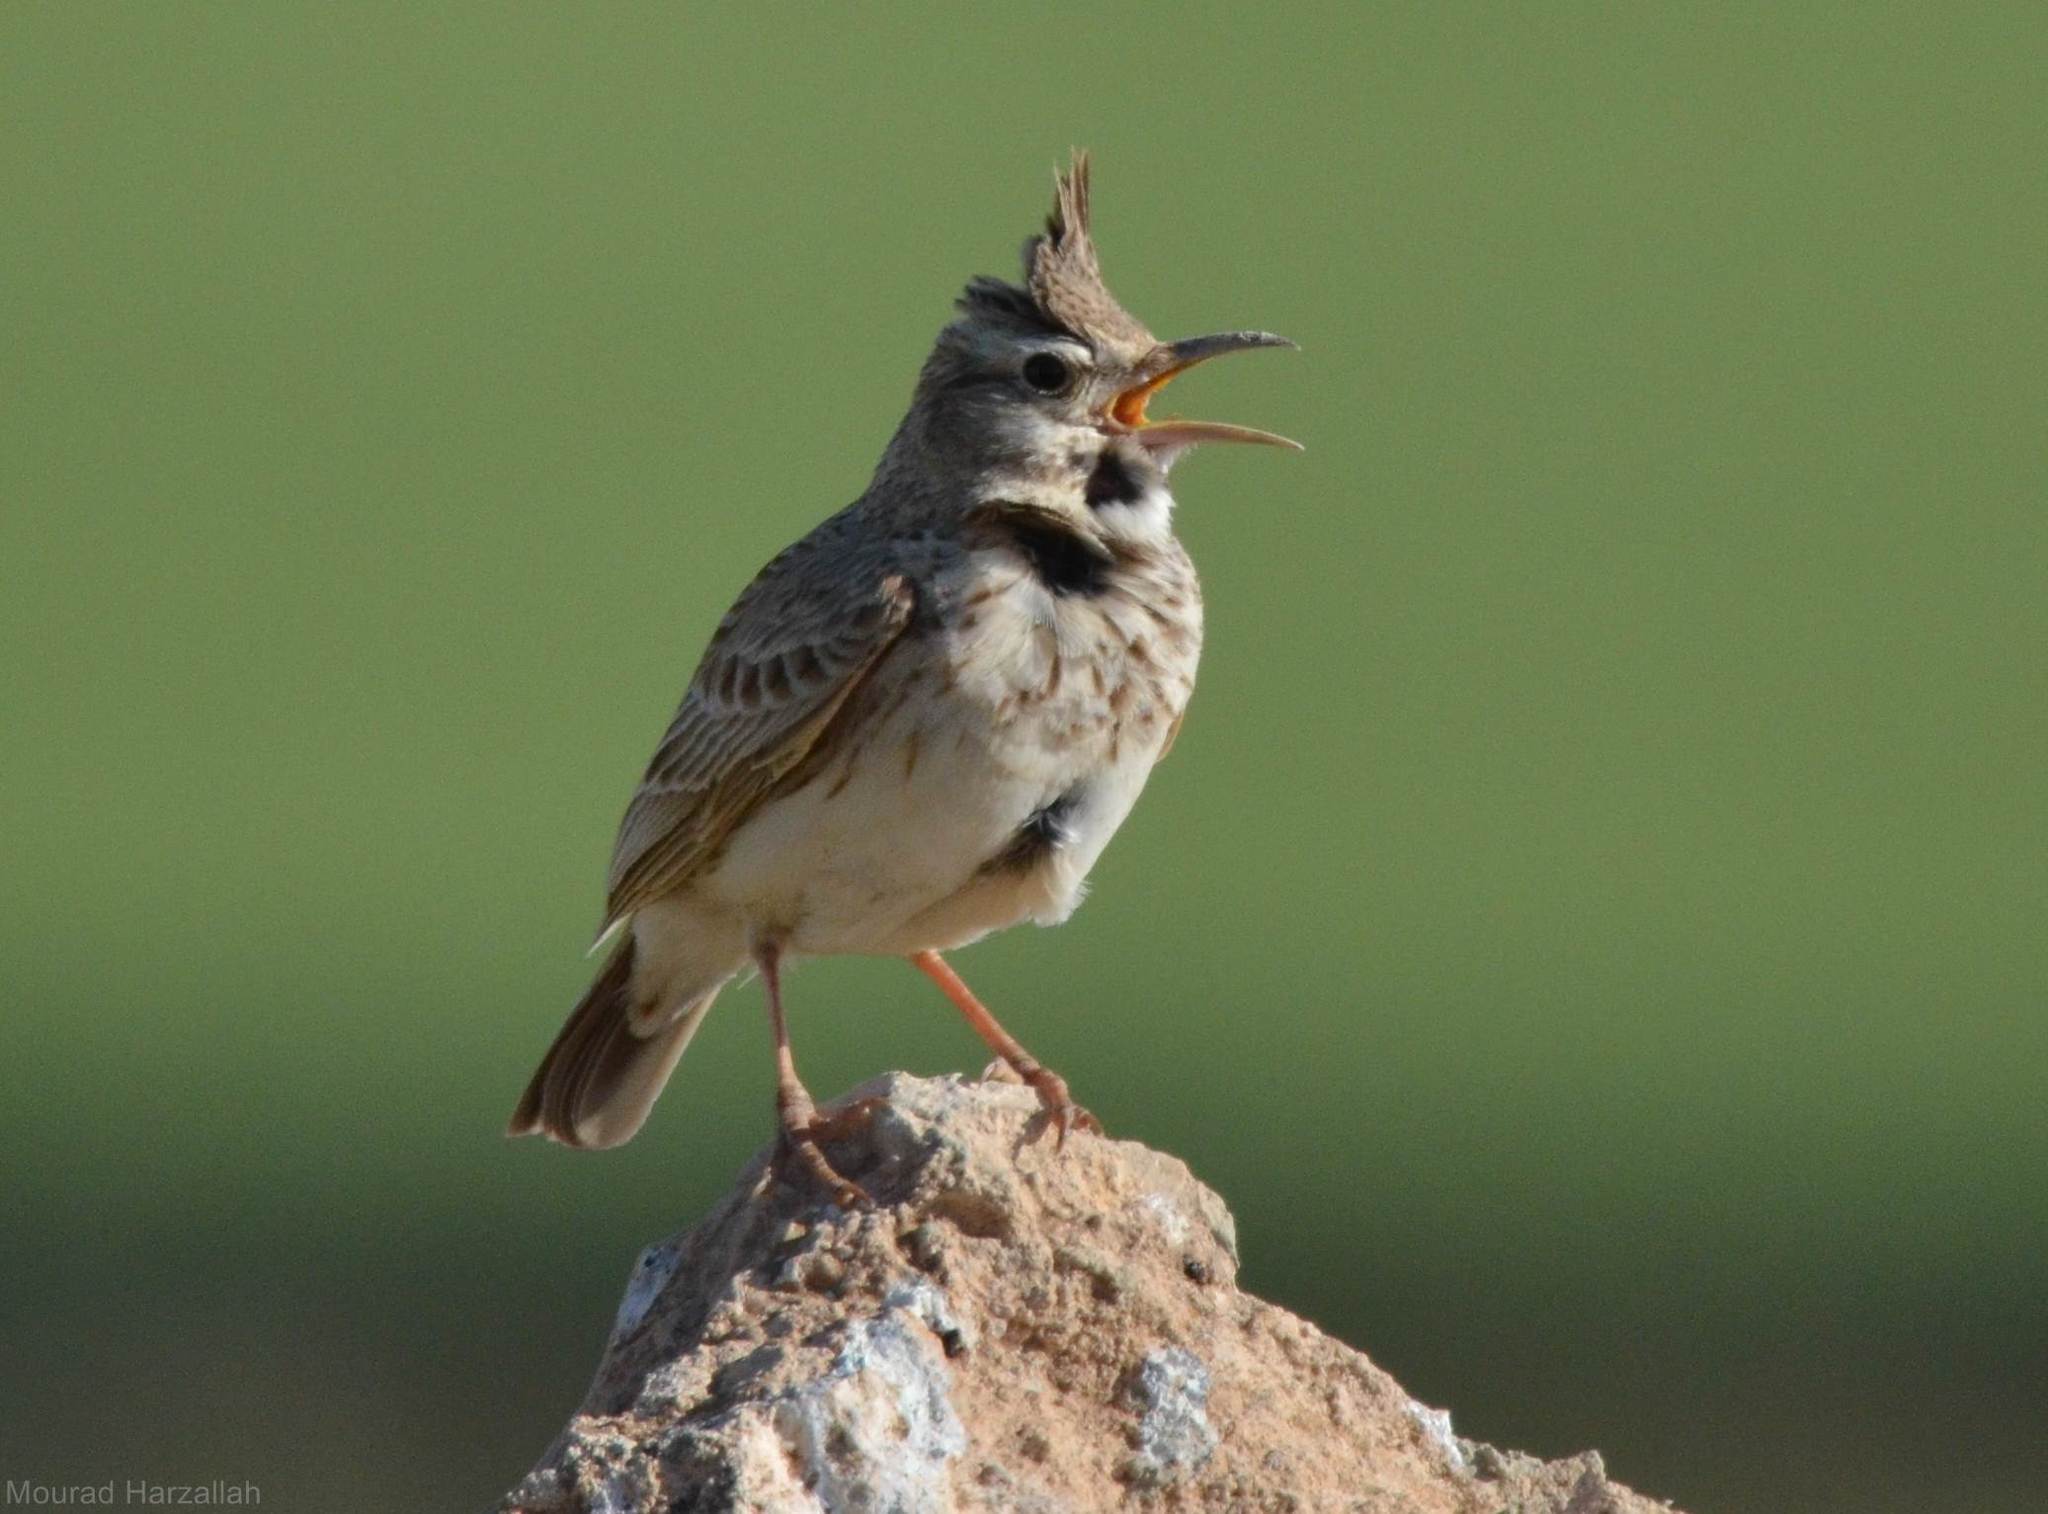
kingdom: Animalia
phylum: Chordata
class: Aves
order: Passeriformes
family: Alaudidae
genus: Galerida
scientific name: Galerida cristata
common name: Crested lark
